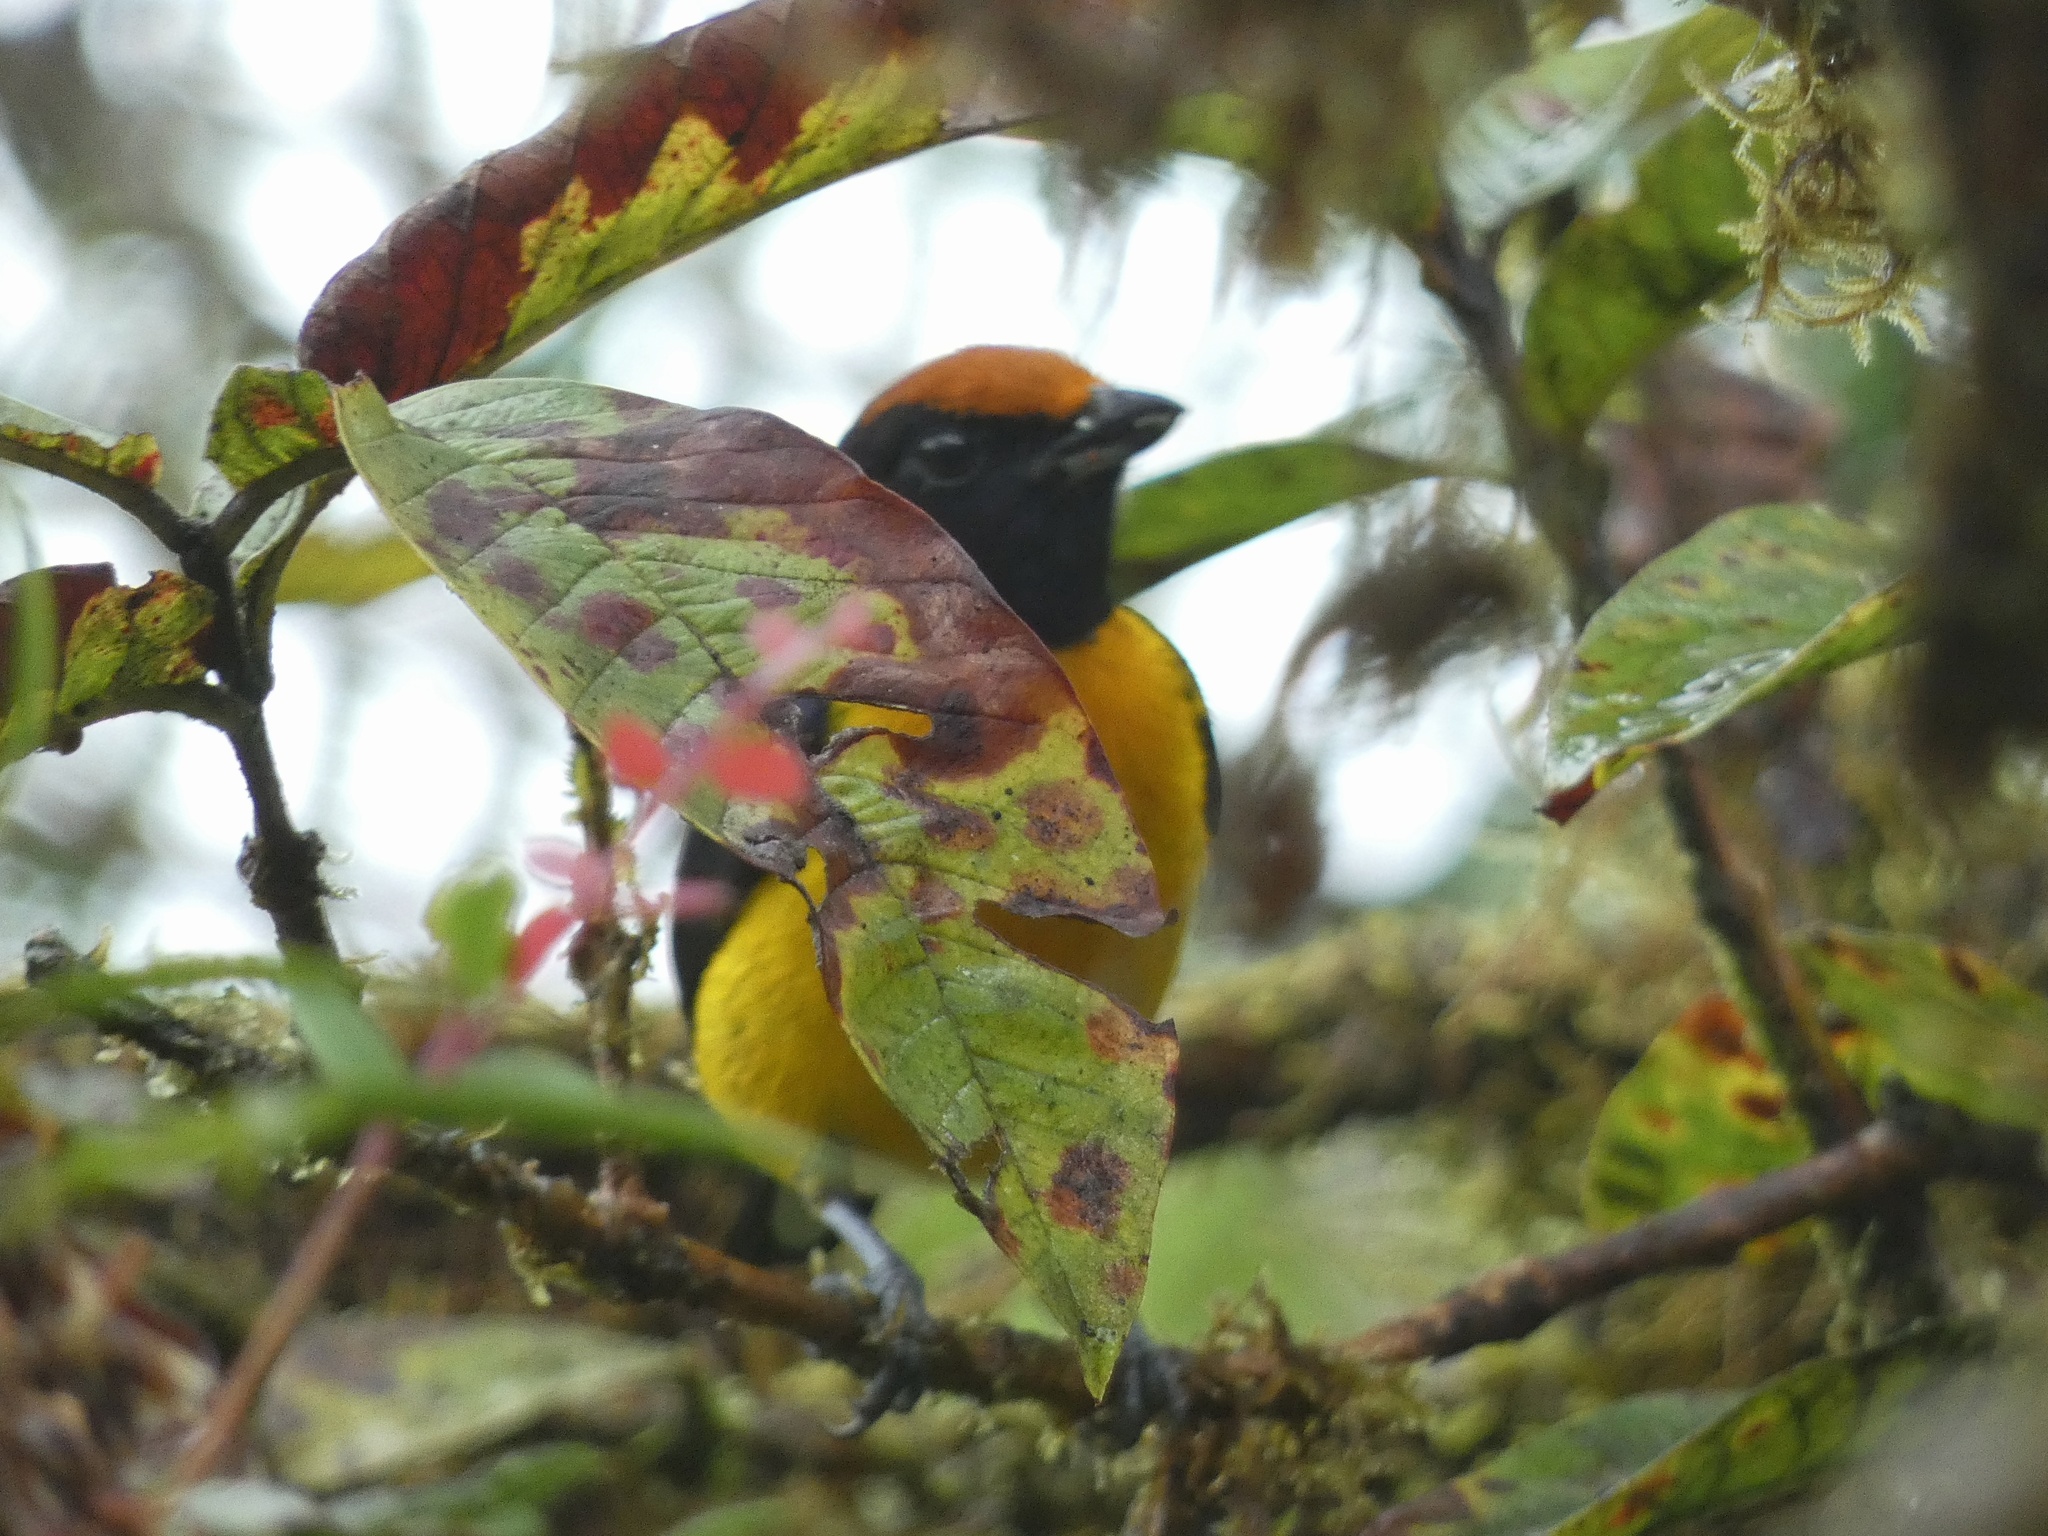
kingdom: Animalia
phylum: Chordata
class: Aves
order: Passeriformes
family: Fringillidae
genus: Euphonia
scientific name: Euphonia luteicapilla
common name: Yellow-crowned euphonia
